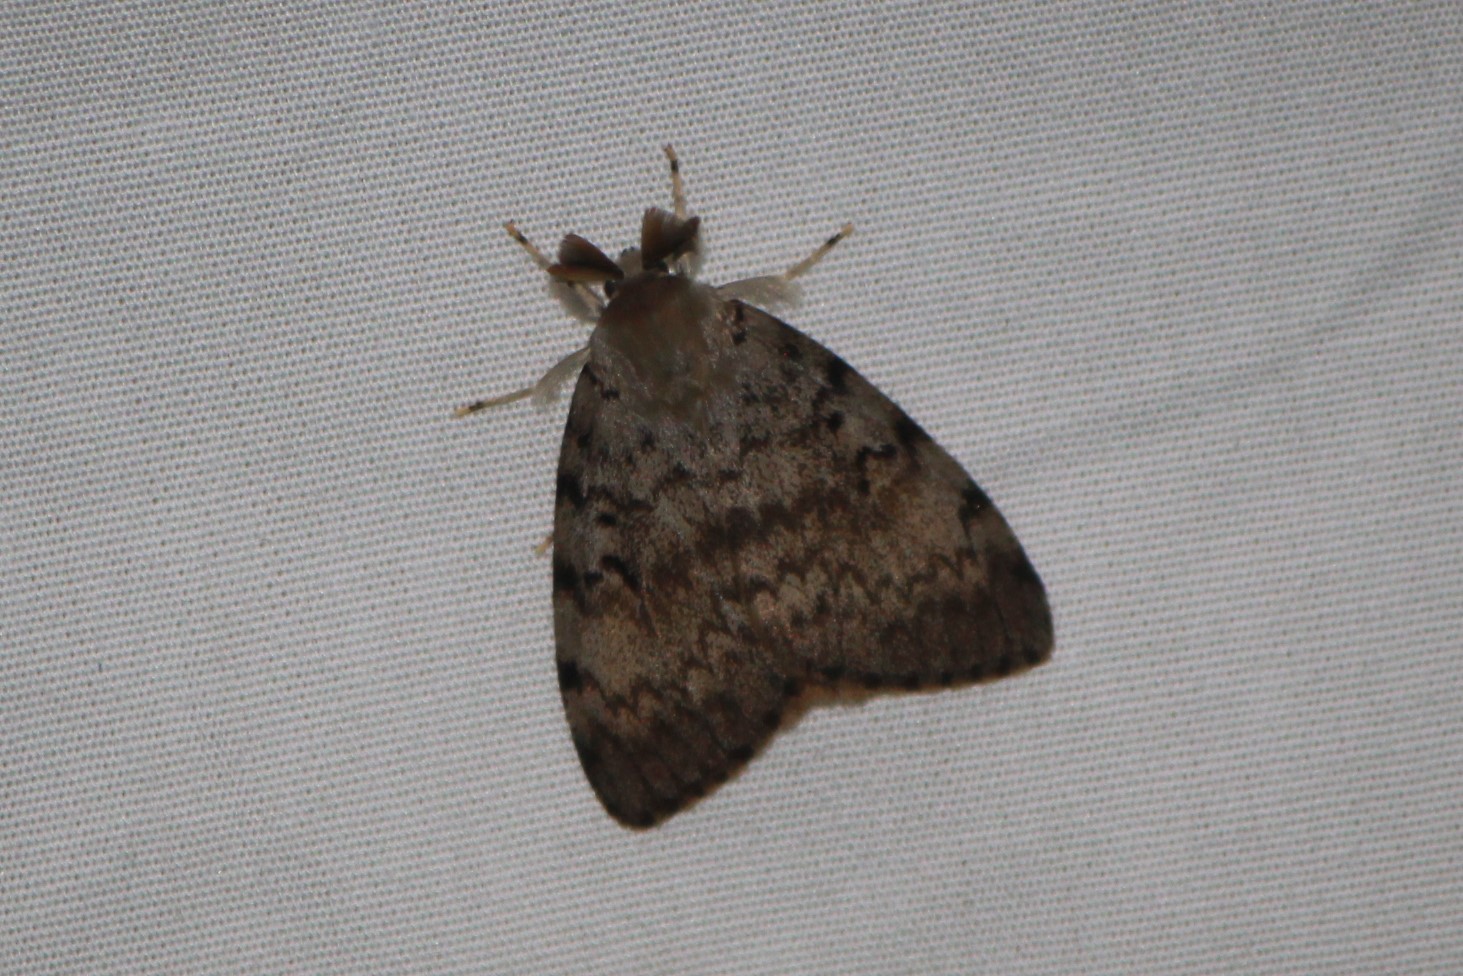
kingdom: Animalia
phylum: Arthropoda
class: Insecta
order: Lepidoptera
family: Erebidae
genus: Lymantria
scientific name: Lymantria dispar
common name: Gypsy moth
